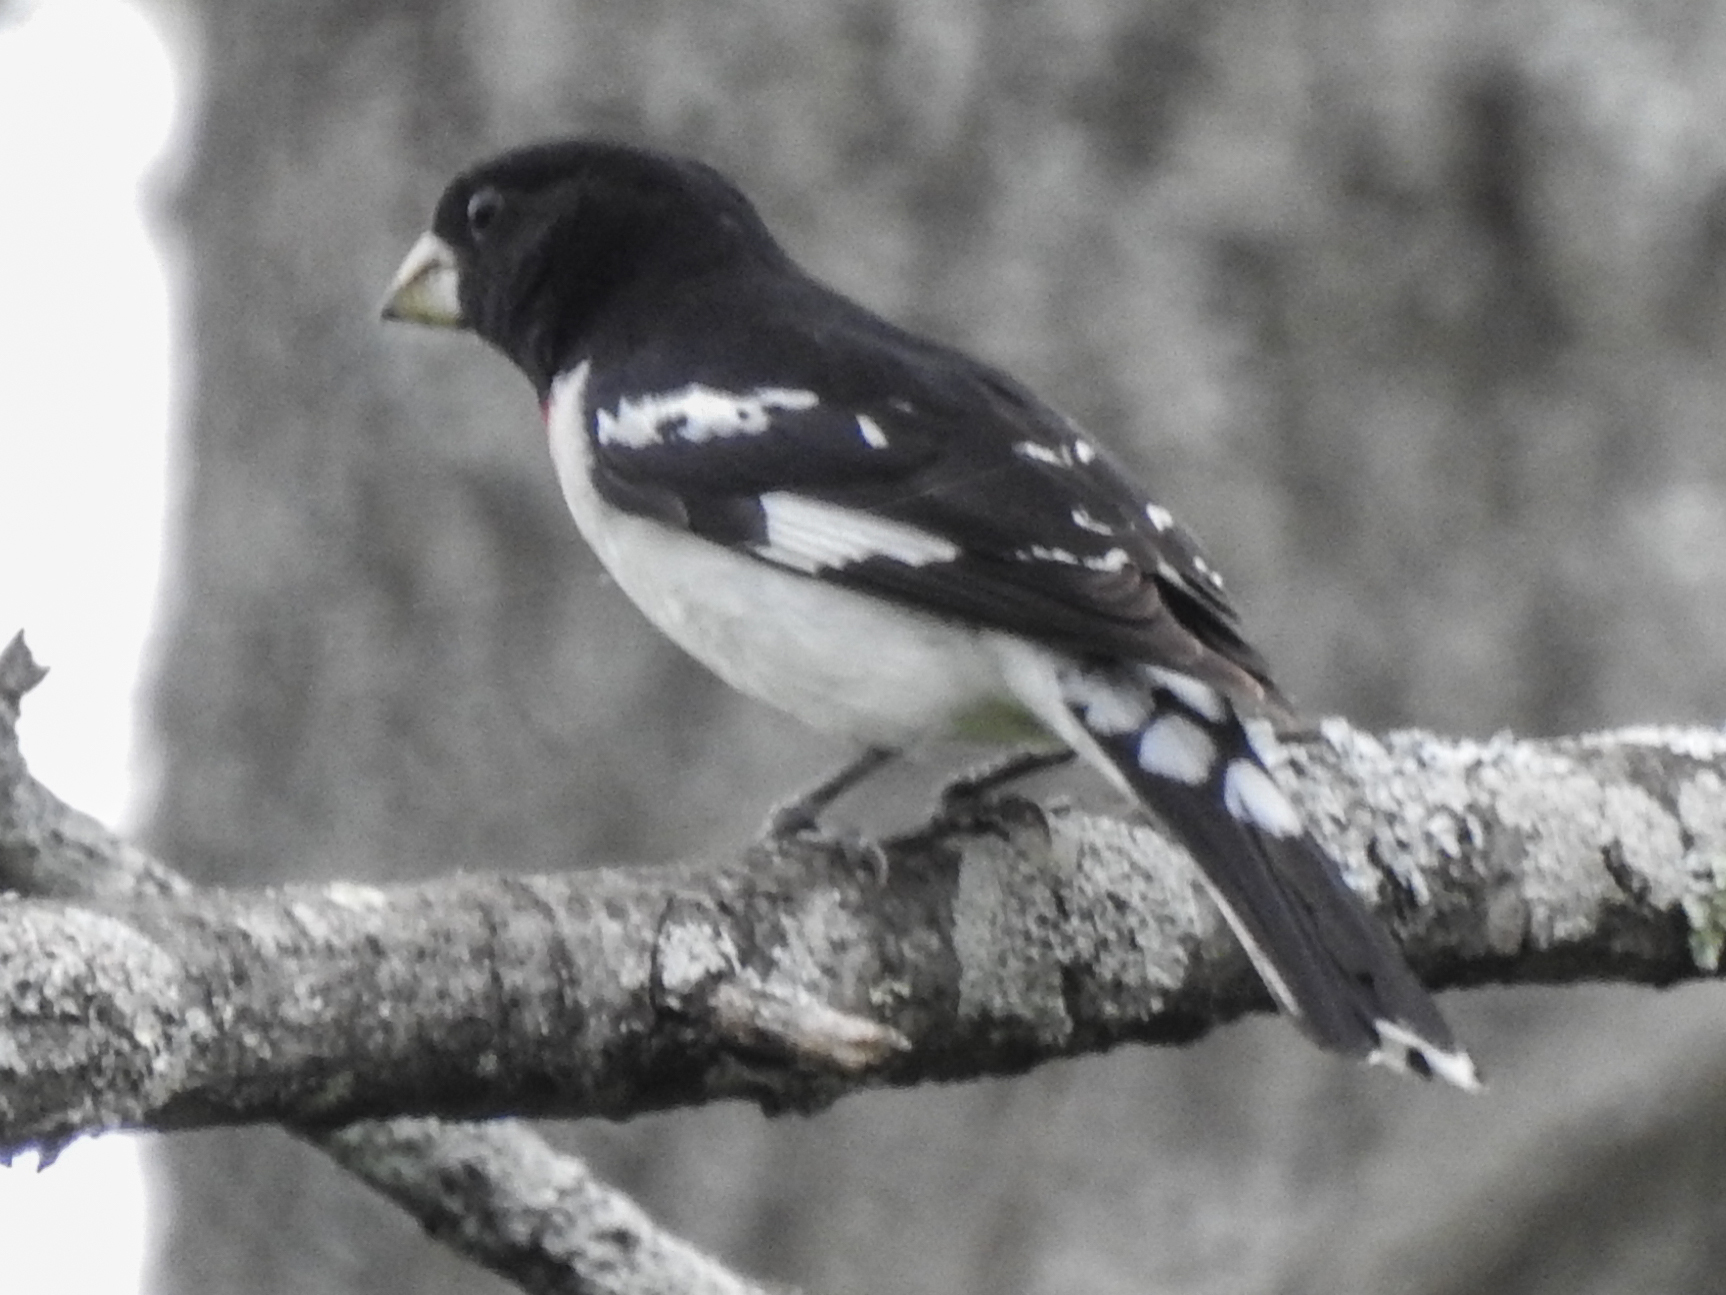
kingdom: Animalia
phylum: Chordata
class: Aves
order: Passeriformes
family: Cardinalidae
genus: Pheucticus
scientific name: Pheucticus ludovicianus
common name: Rose-breasted grosbeak
